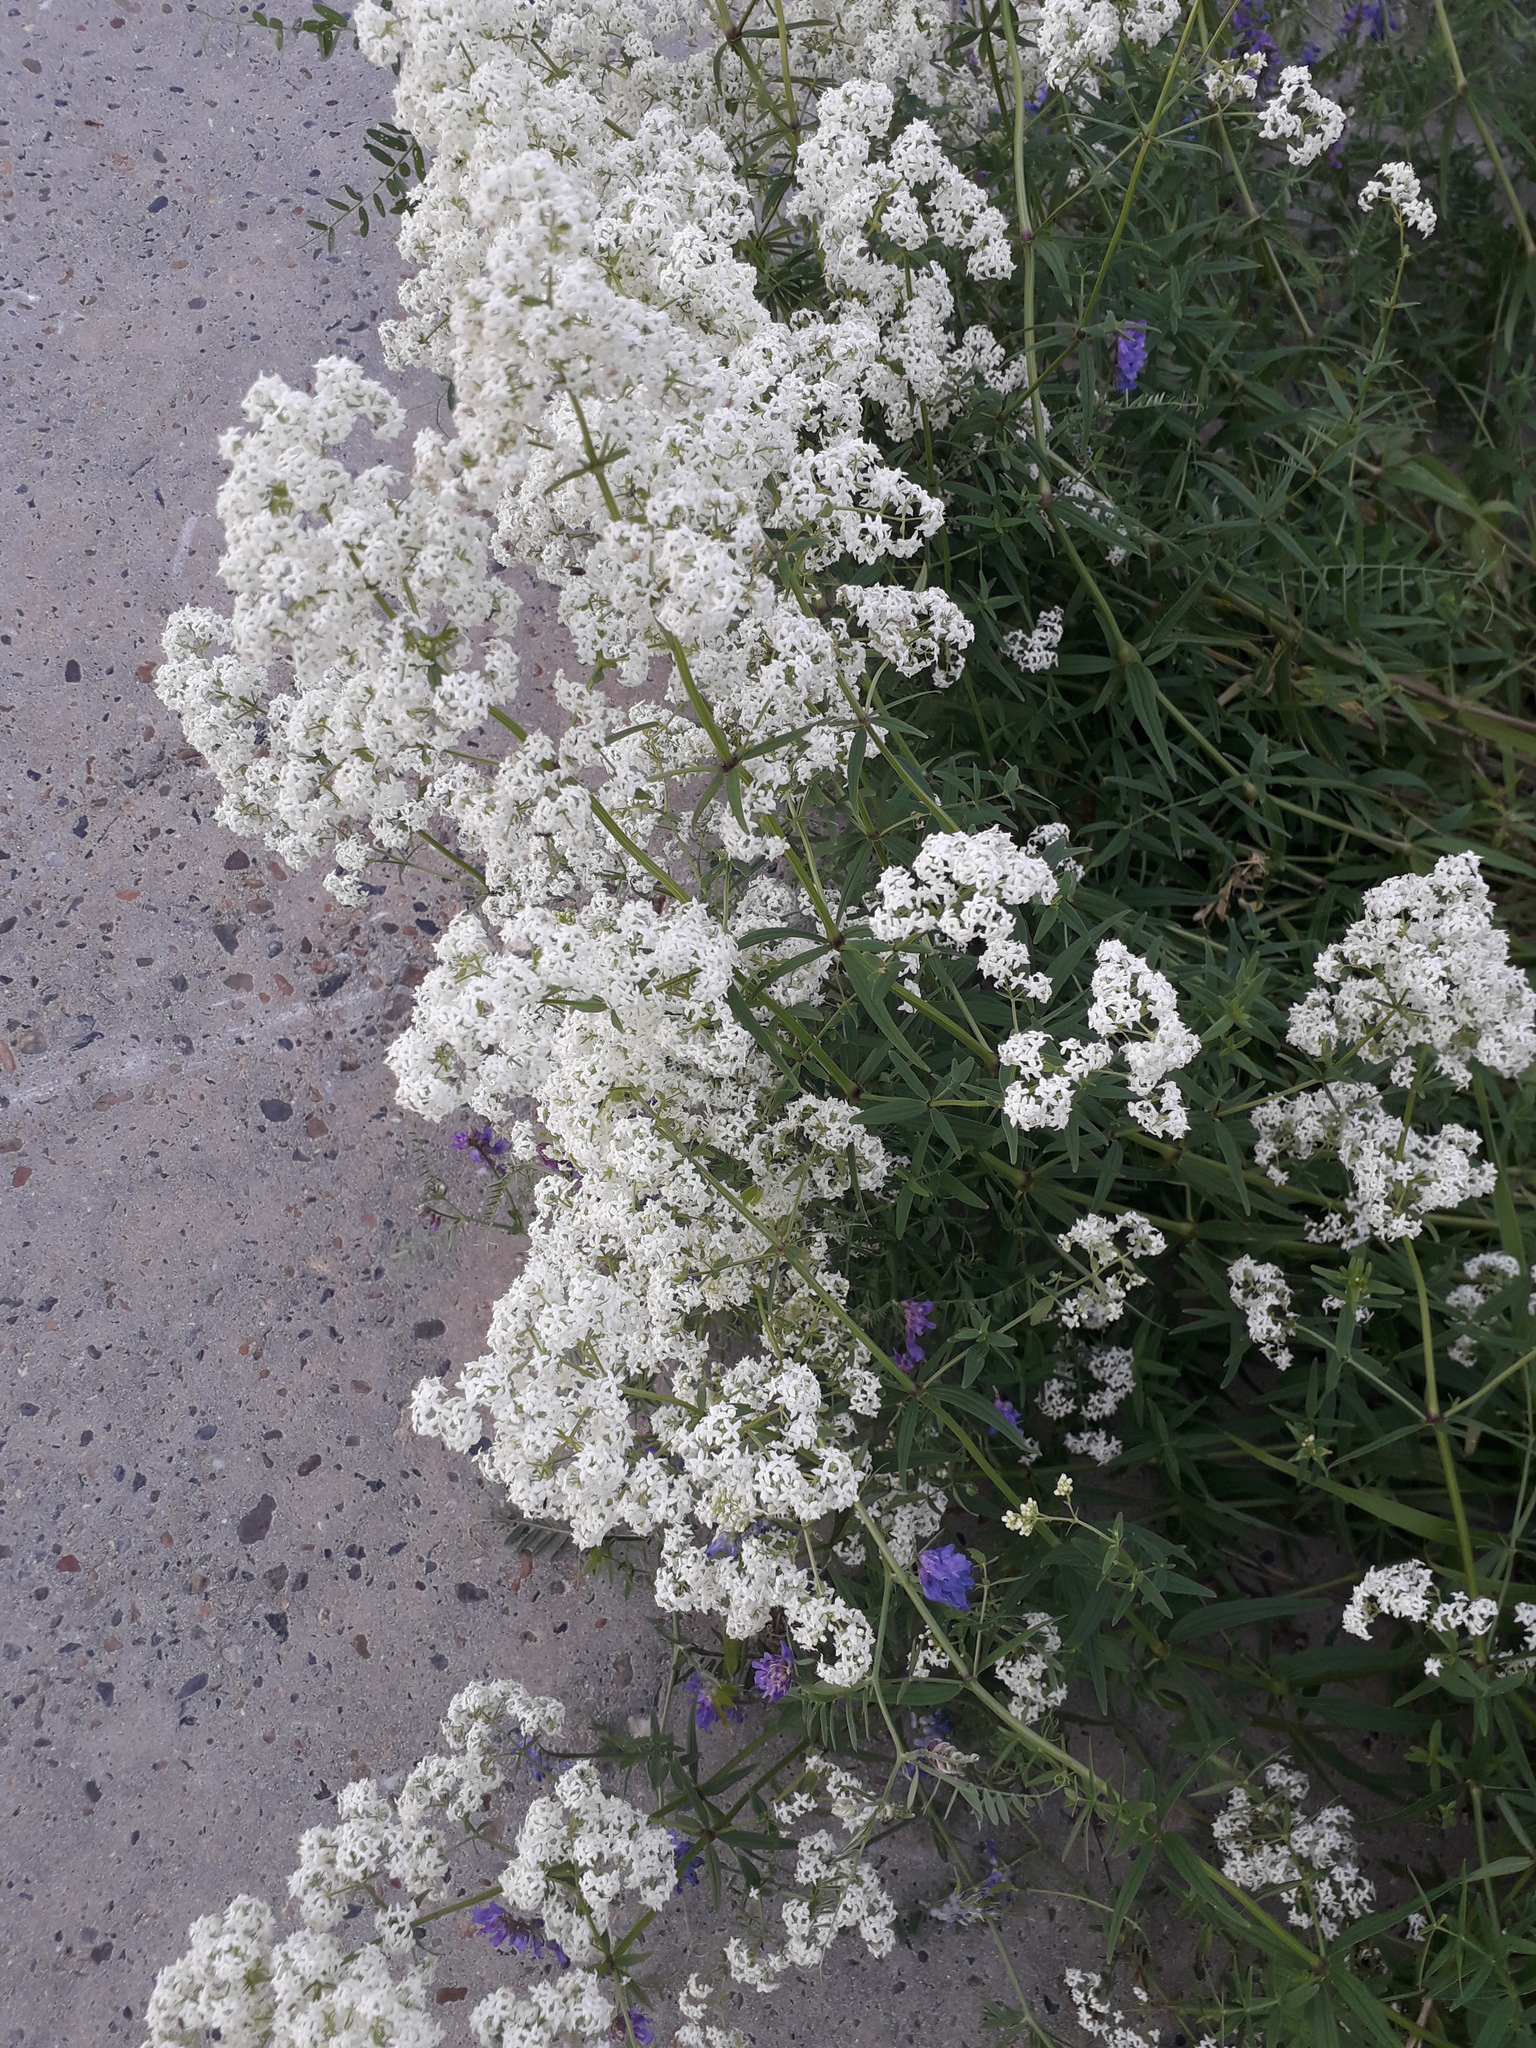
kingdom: Plantae
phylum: Tracheophyta
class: Magnoliopsida
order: Gentianales
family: Rubiaceae
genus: Galium
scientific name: Galium boreale
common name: Northern bedstraw
